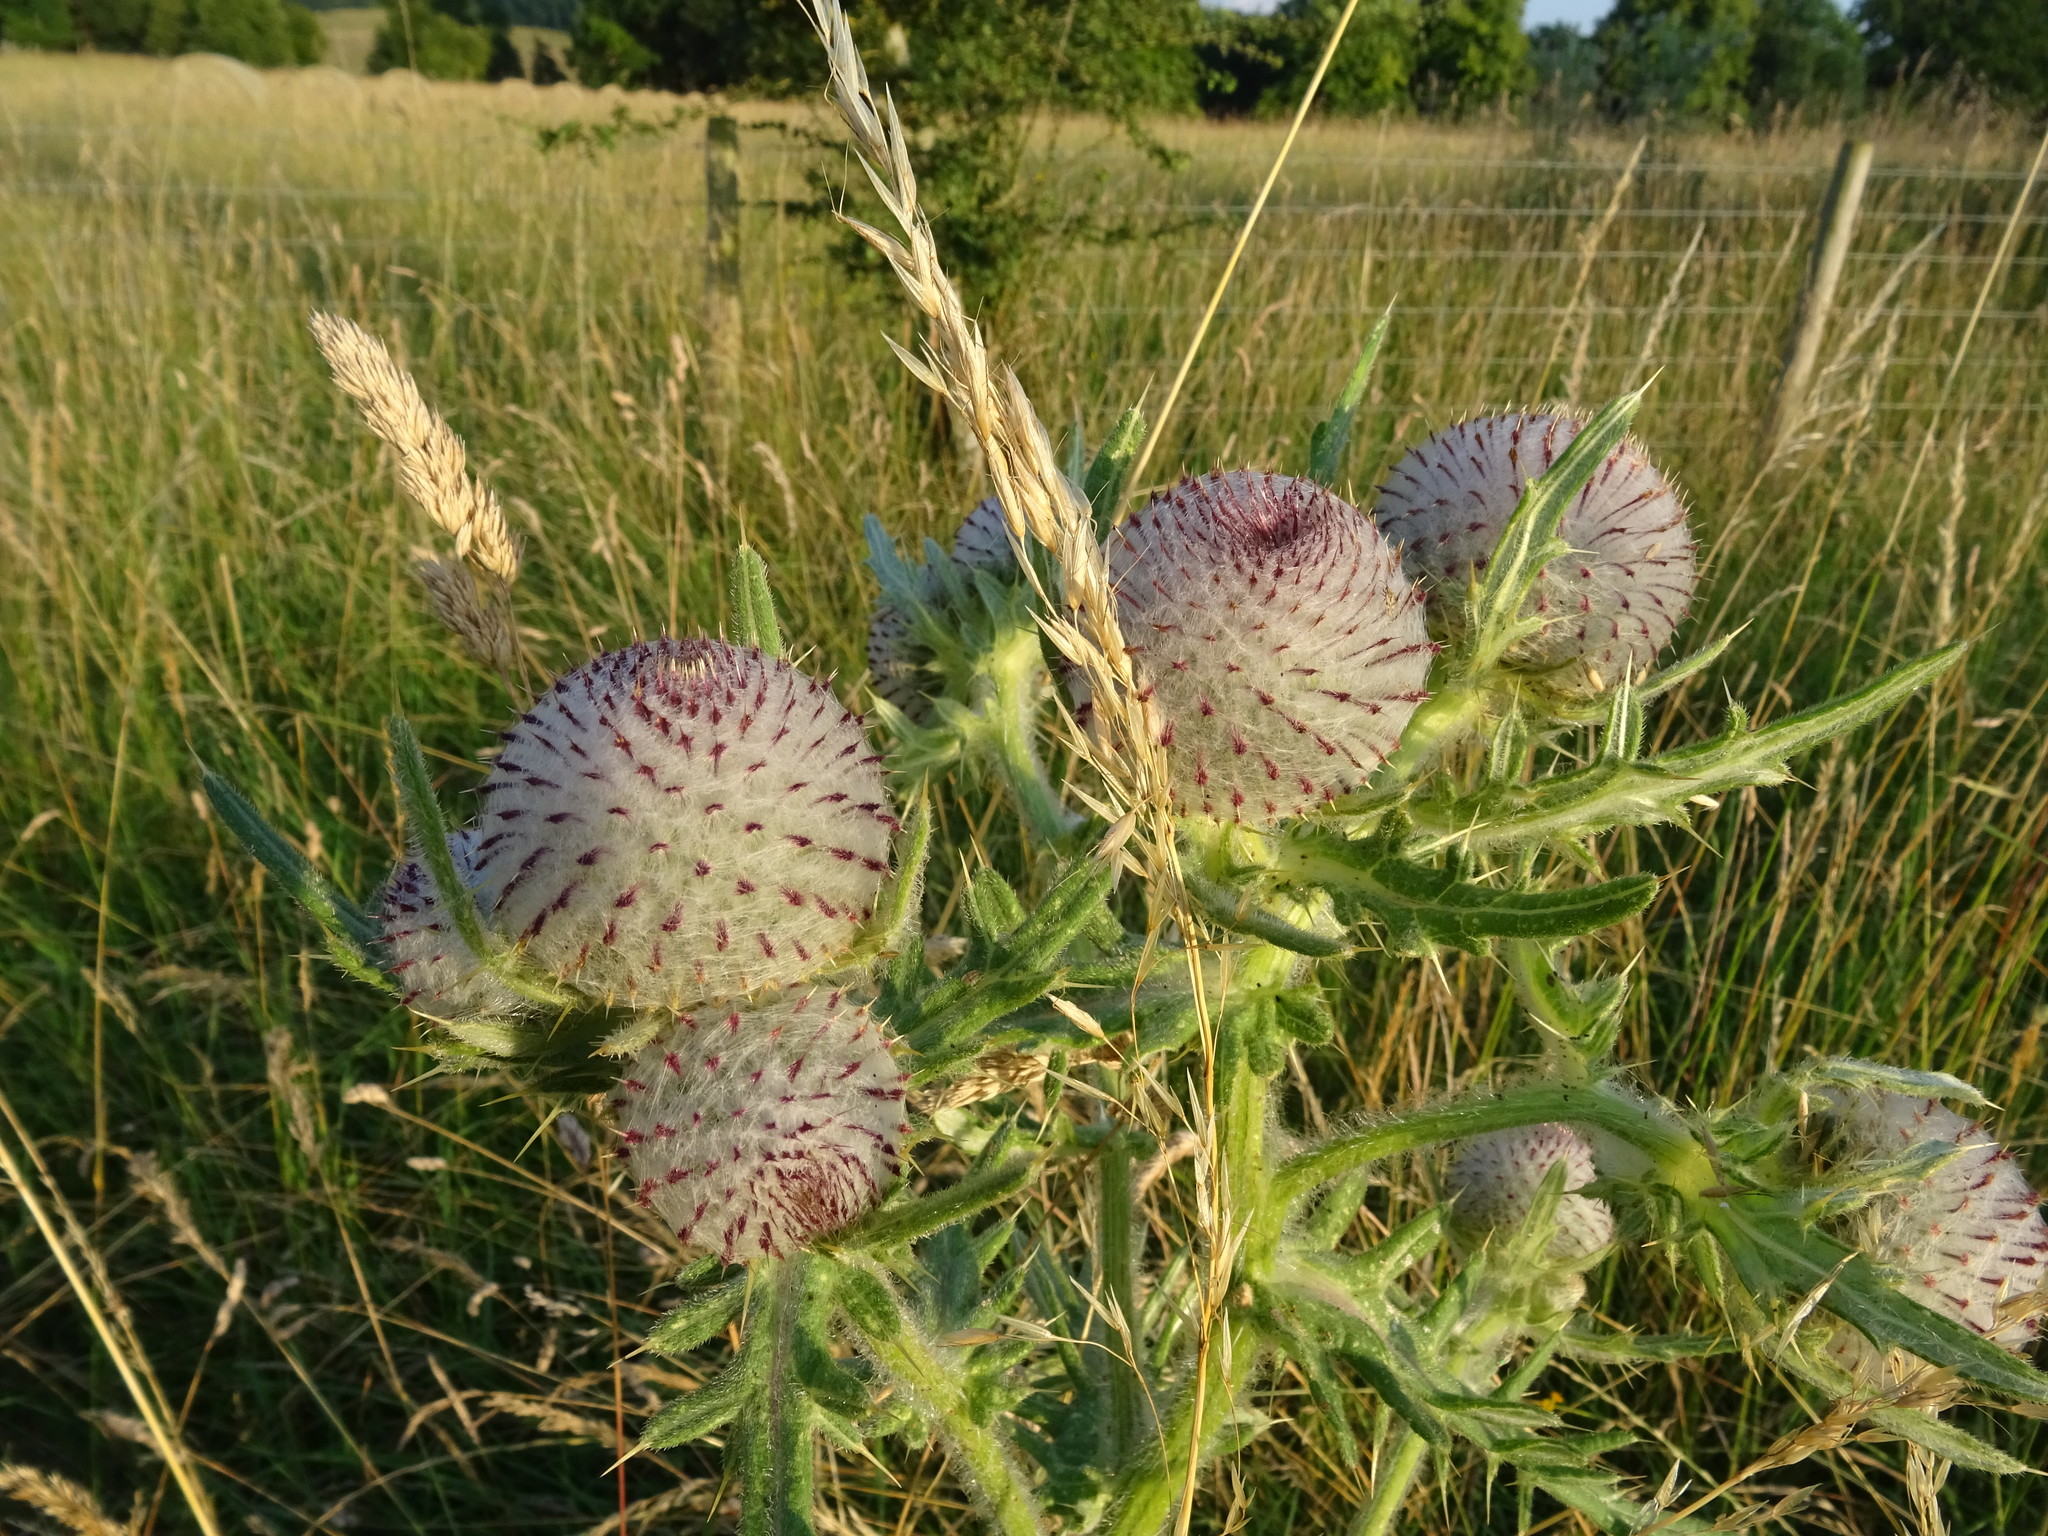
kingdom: Plantae
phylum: Tracheophyta
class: Magnoliopsida
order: Asterales
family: Asteraceae
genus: Lophiolepis
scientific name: Lophiolepis eriophora
